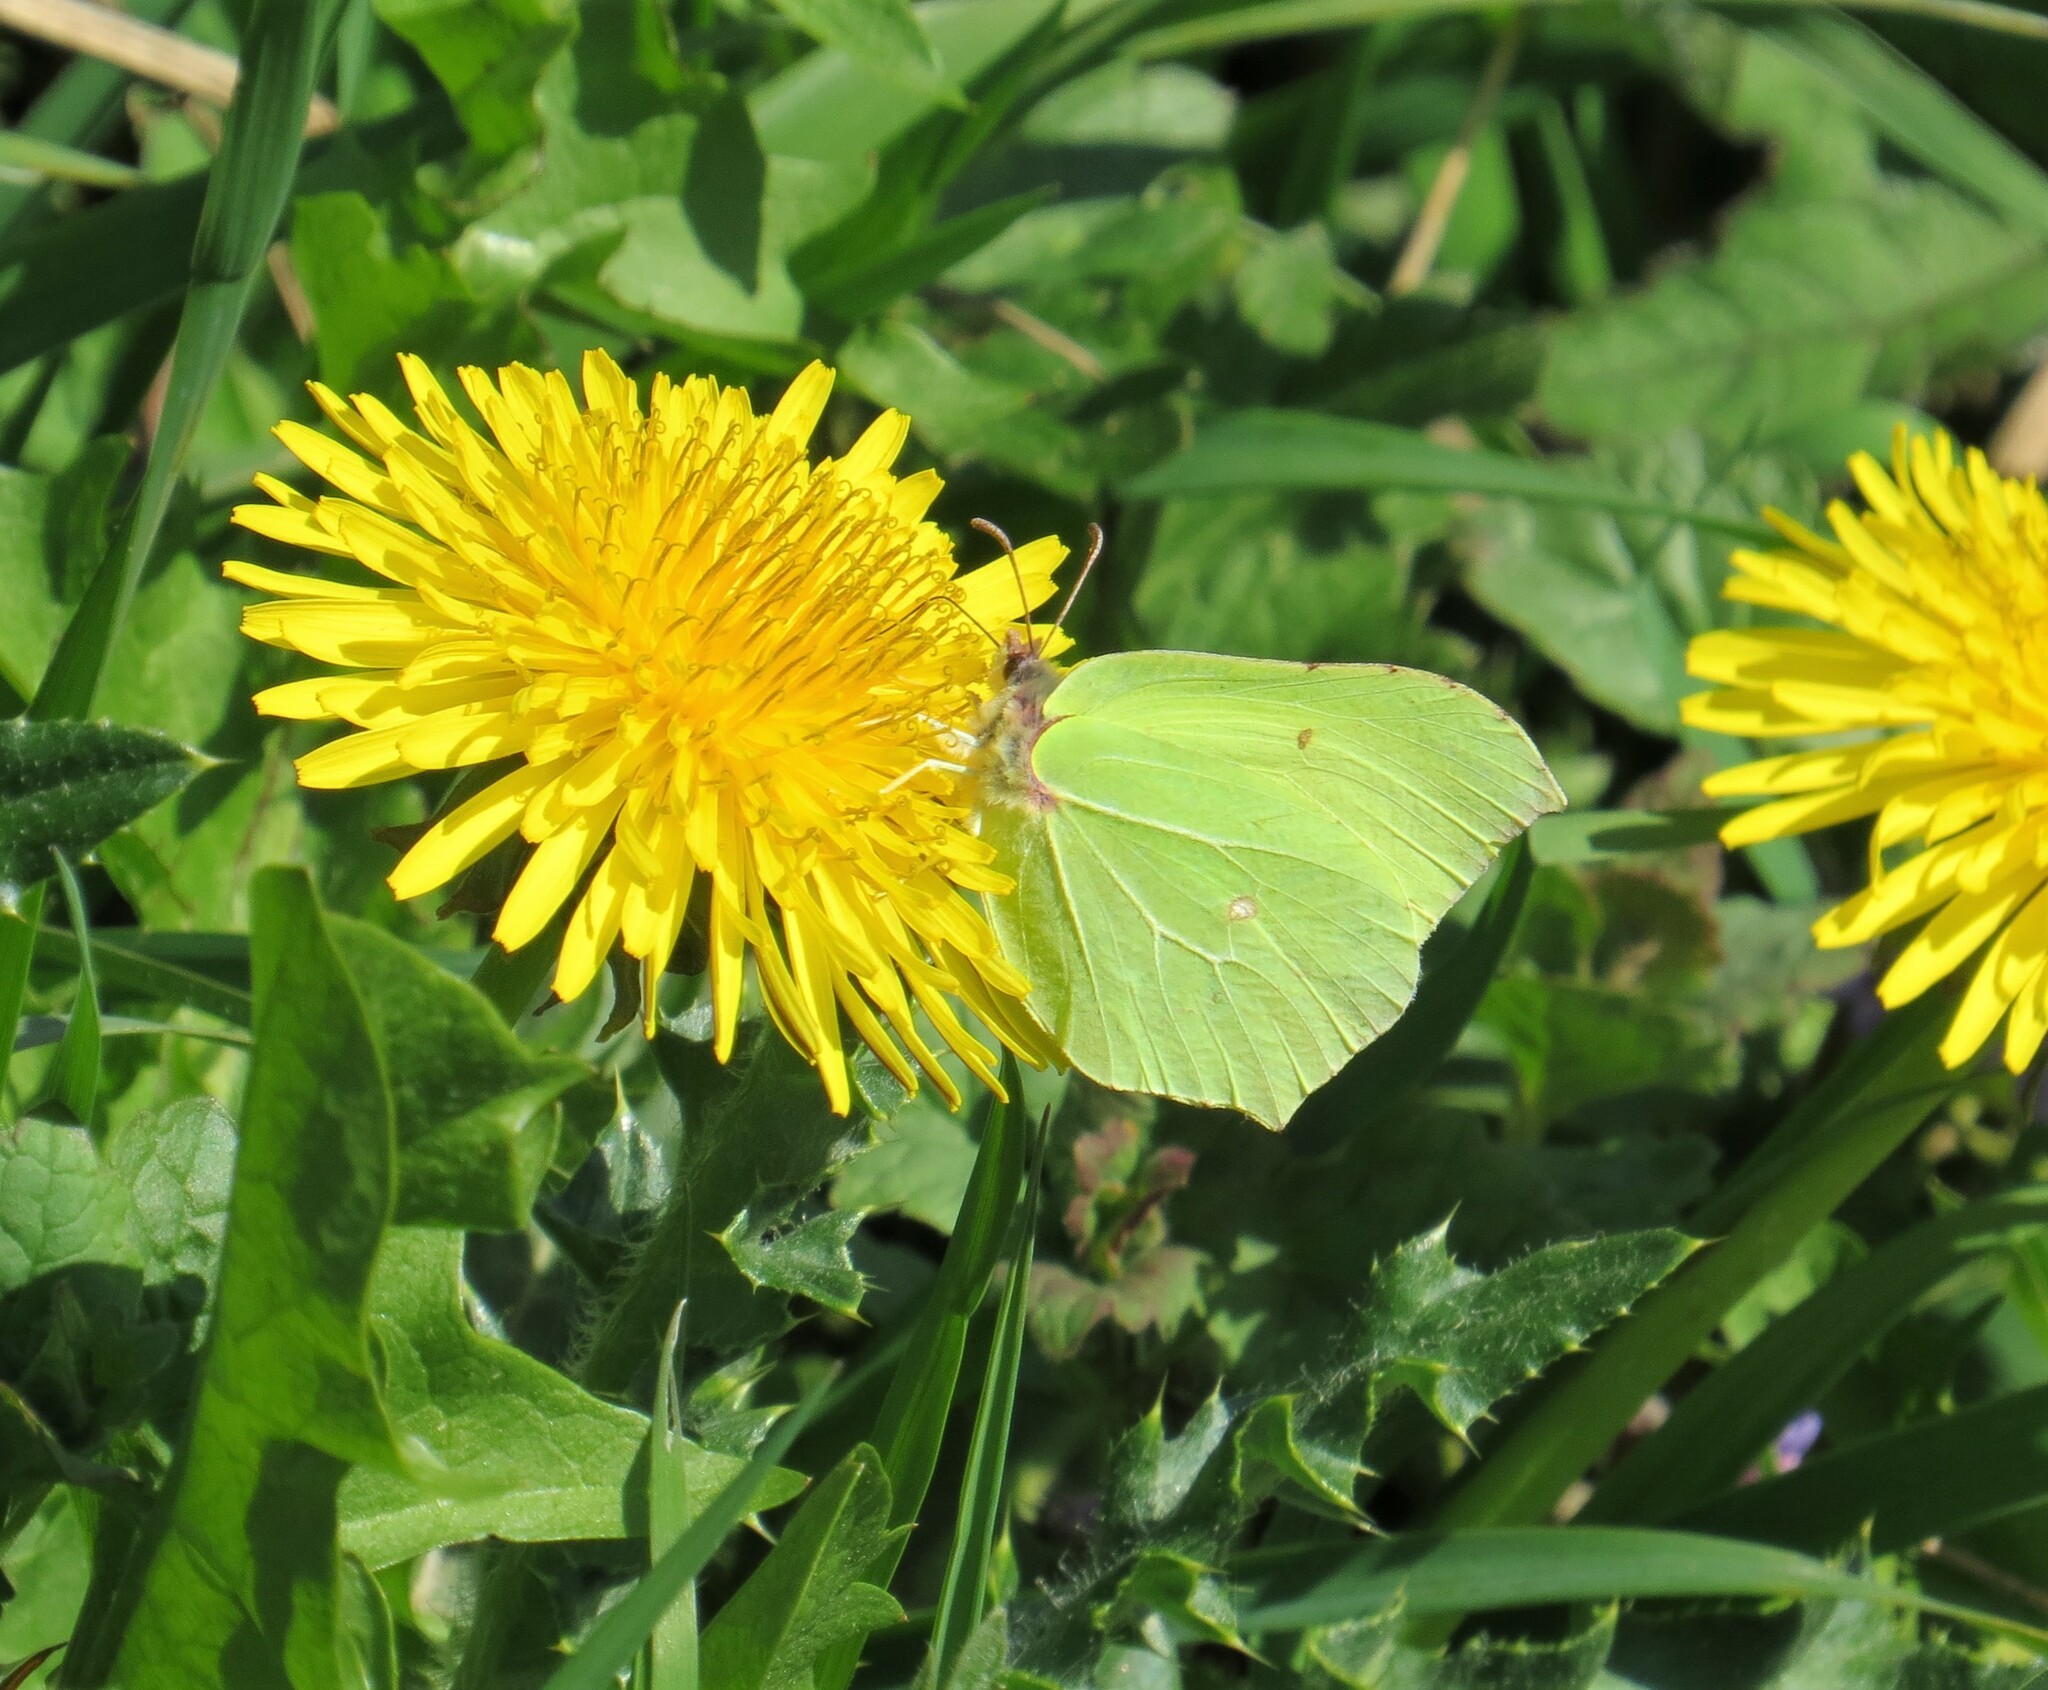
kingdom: Animalia
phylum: Arthropoda
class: Insecta
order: Lepidoptera
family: Pieridae
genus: Gonepteryx
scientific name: Gonepteryx rhamni
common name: Brimstone
